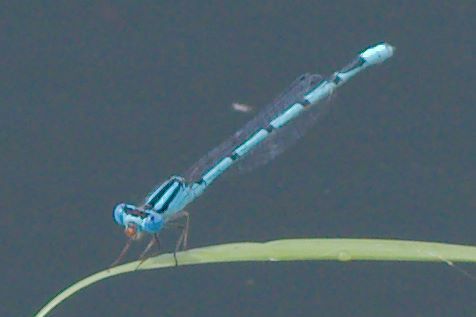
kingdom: Animalia
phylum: Arthropoda
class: Insecta
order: Odonata
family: Coenagrionidae
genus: Enallagma
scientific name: Enallagma civile
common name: Damselfly
